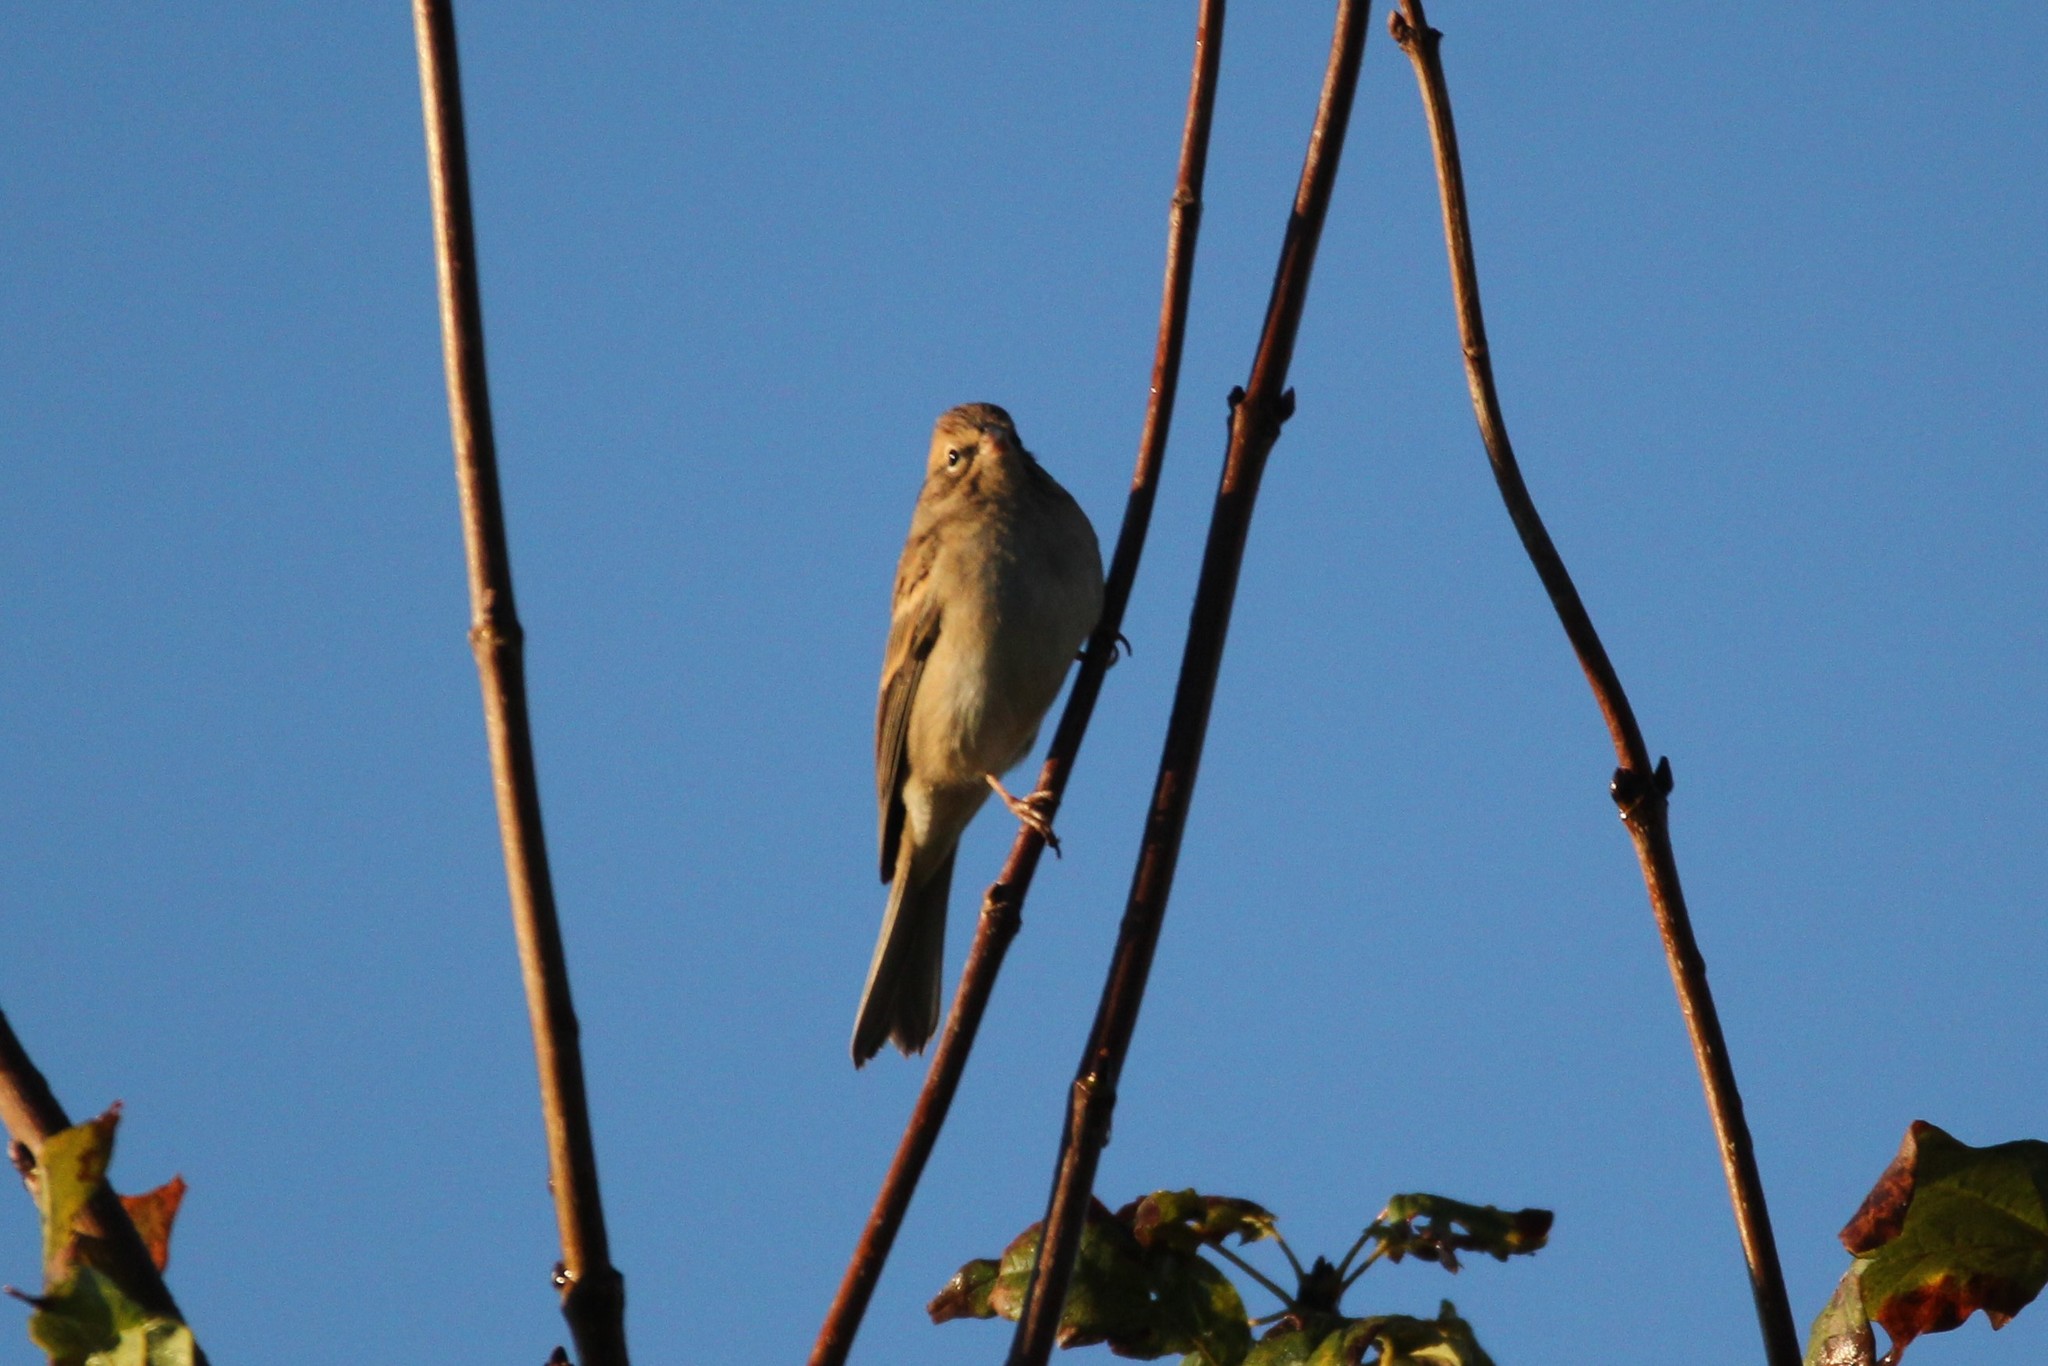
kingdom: Animalia
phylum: Chordata
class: Aves
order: Passeriformes
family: Passerellidae
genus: Spizella
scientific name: Spizella passerina
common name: Chipping sparrow
